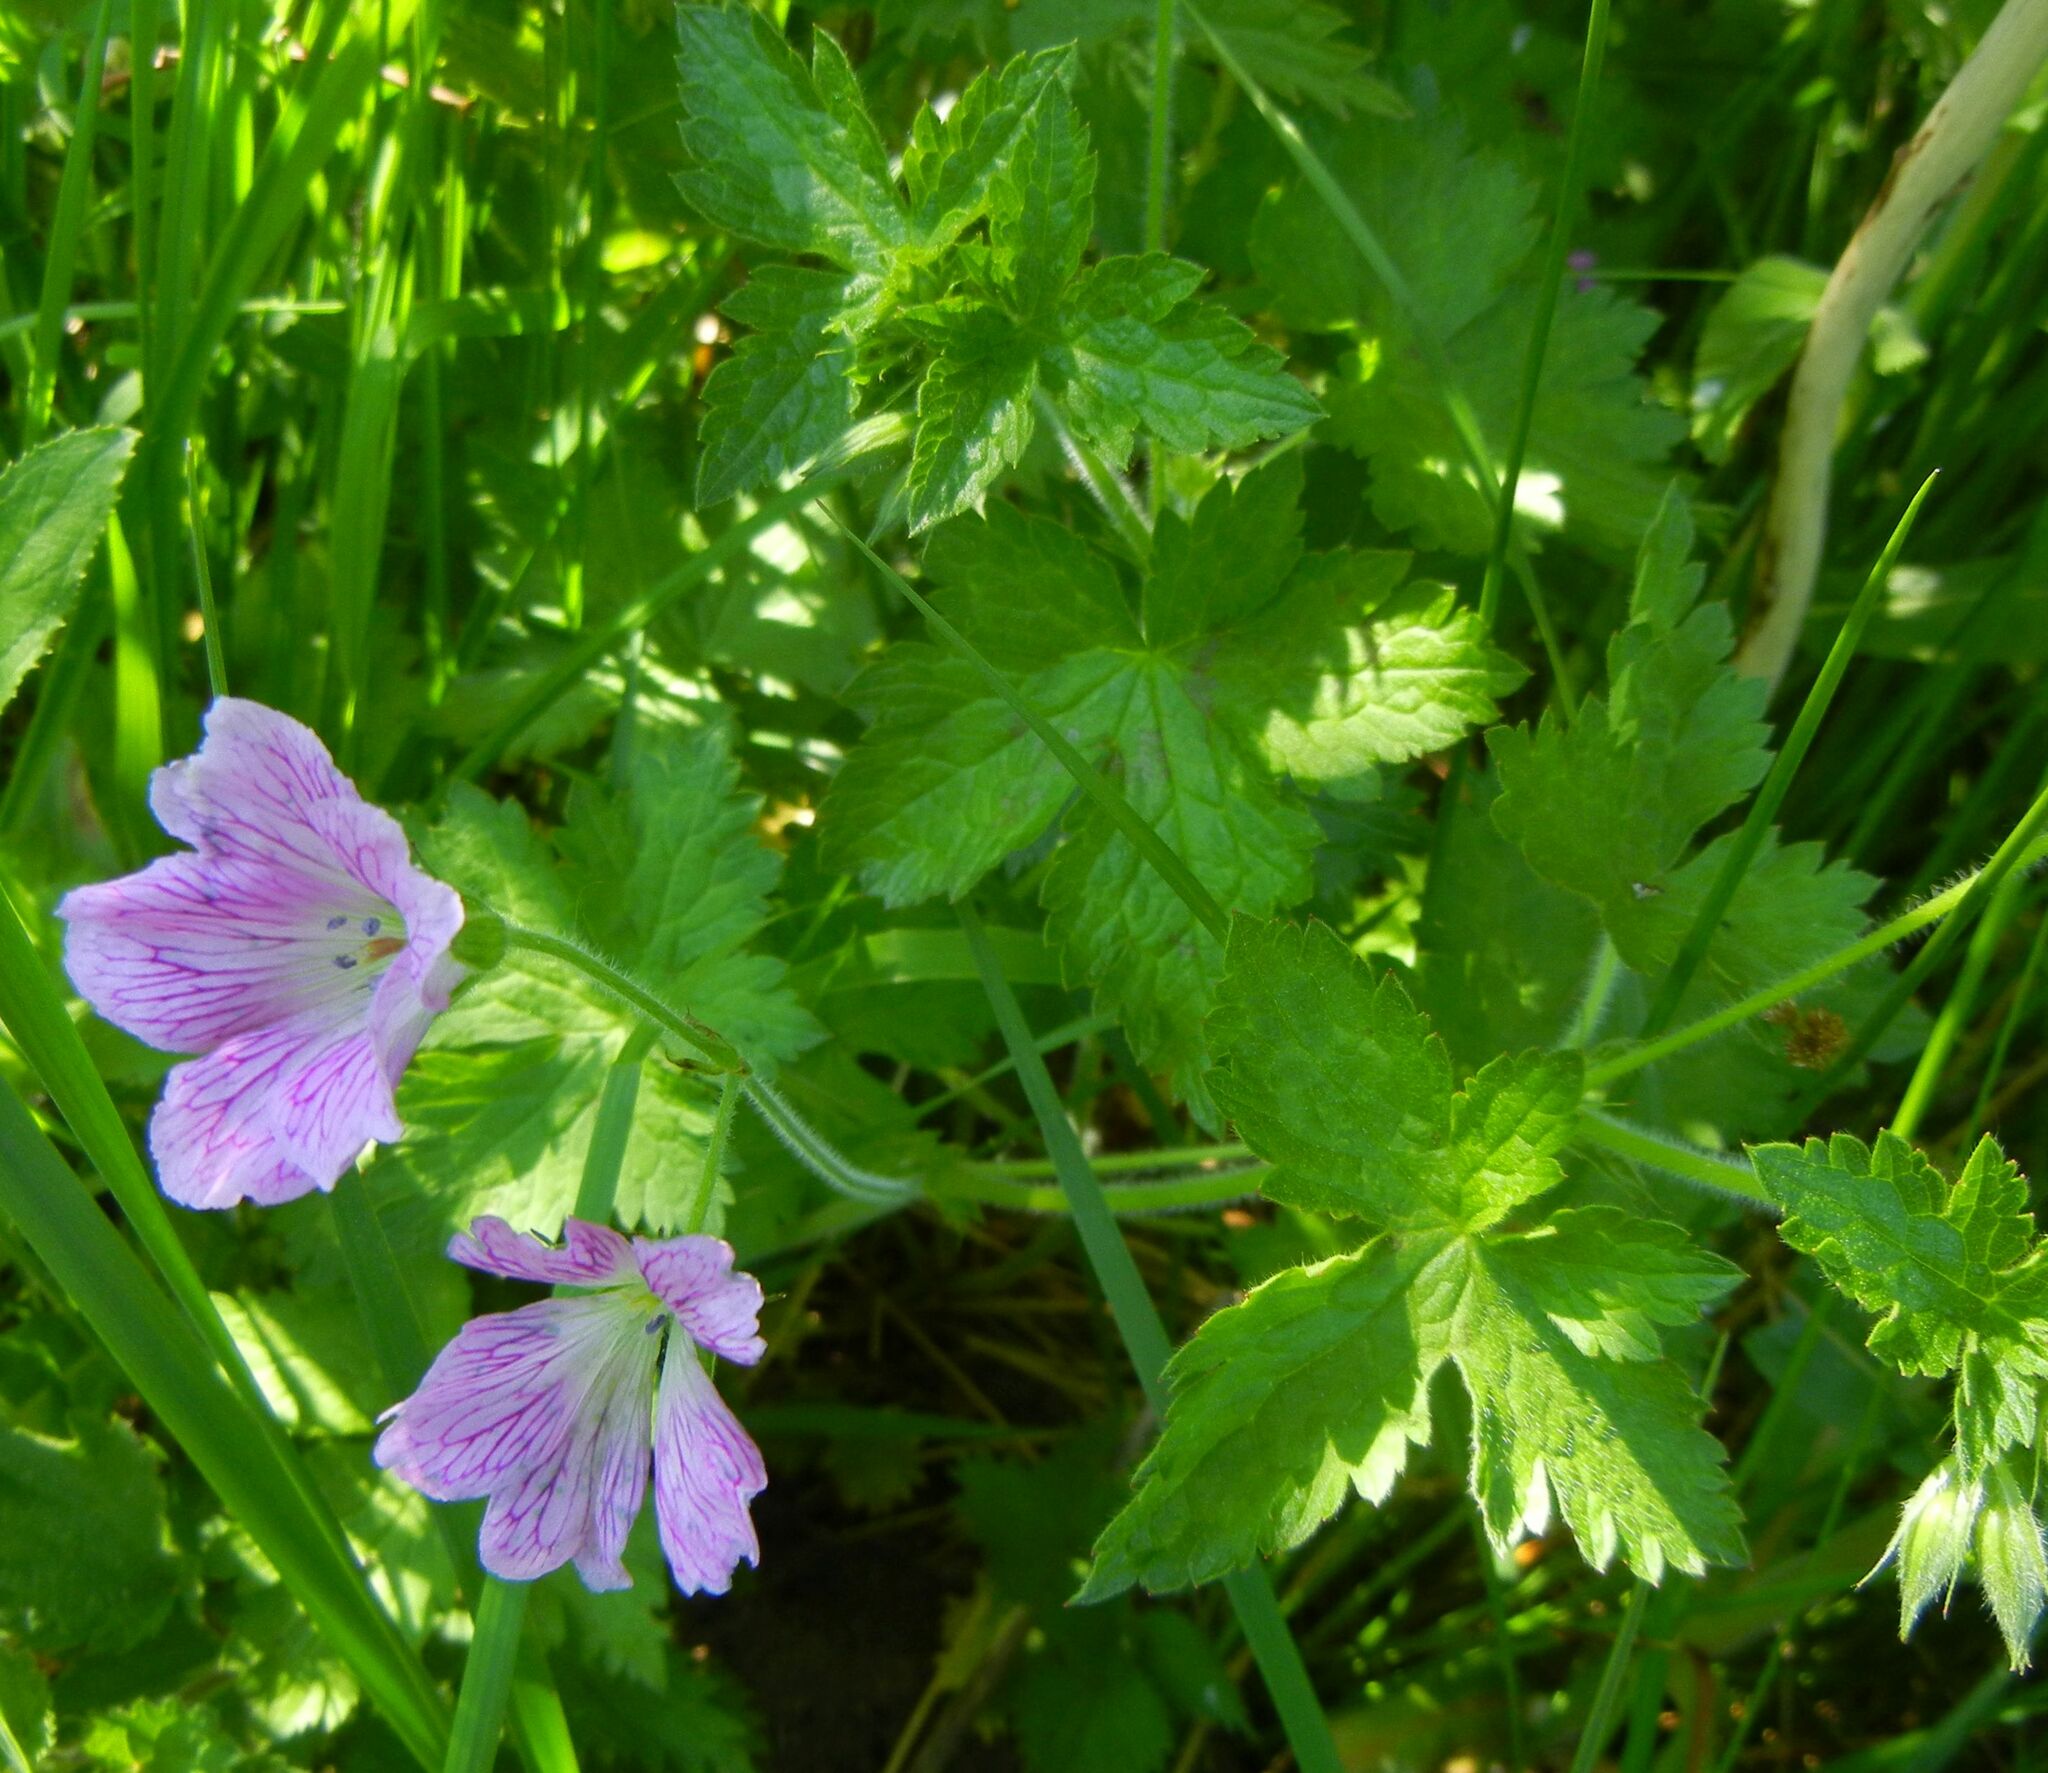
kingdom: Plantae
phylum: Tracheophyta
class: Magnoliopsida
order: Geraniales
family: Geraniaceae
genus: Geranium
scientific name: Geranium oxonianum
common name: Druce's crane's-bill
